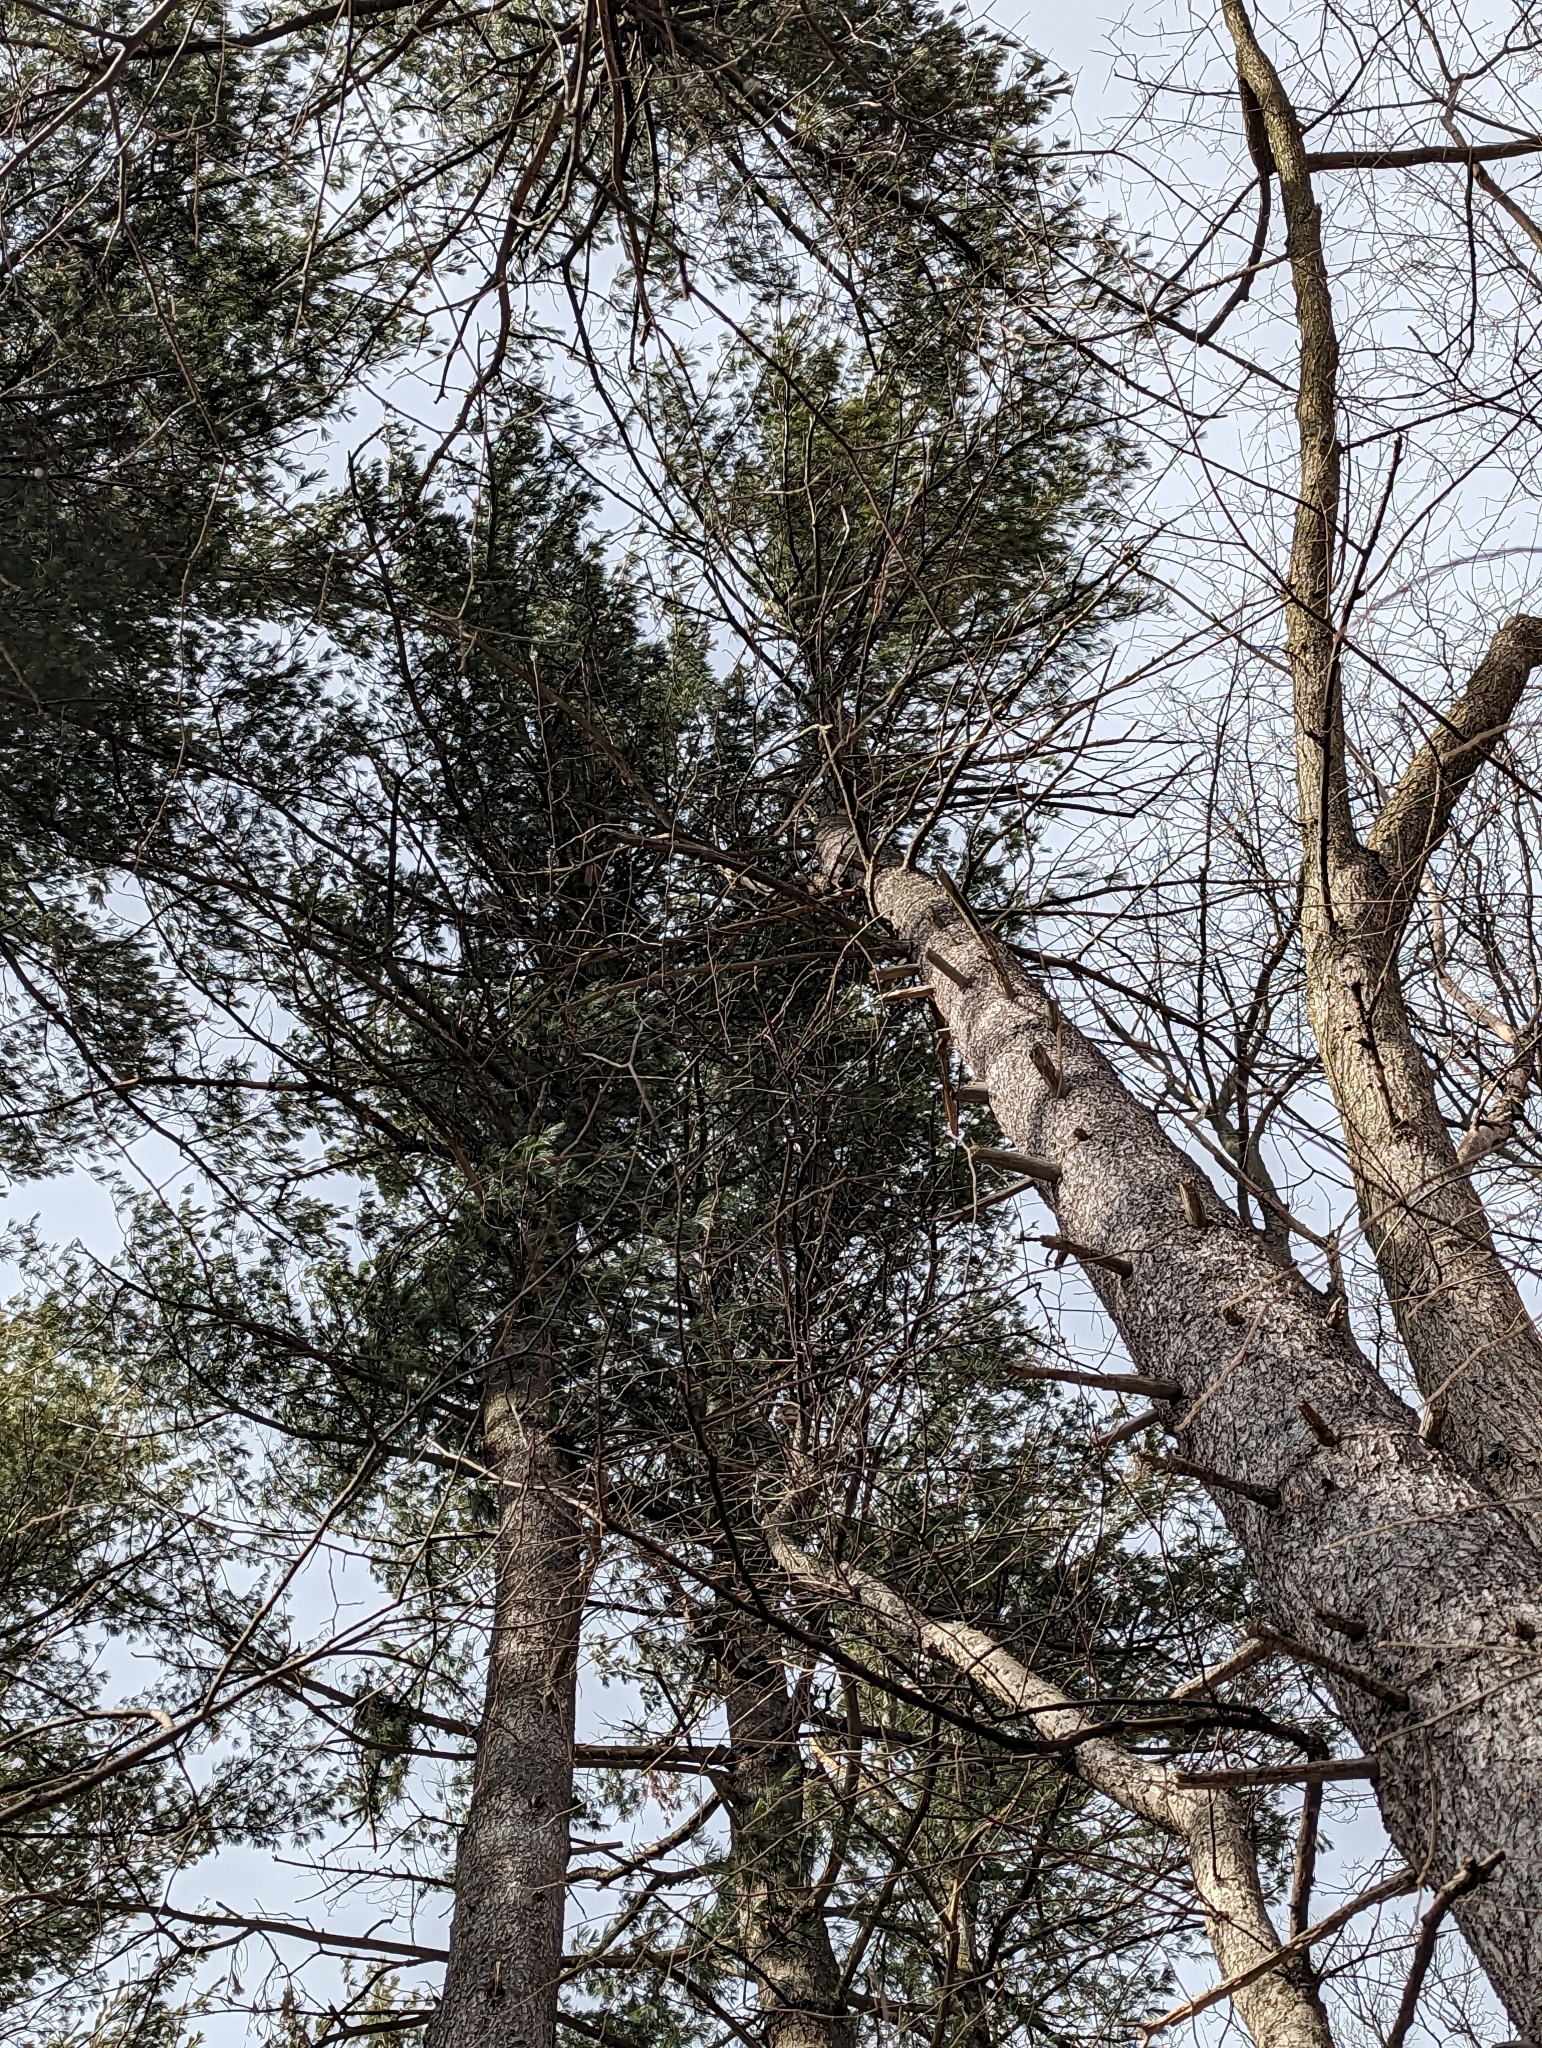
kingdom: Plantae
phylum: Tracheophyta
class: Pinopsida
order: Pinales
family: Pinaceae
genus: Pinus
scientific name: Pinus strobus
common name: Weymouth pine
